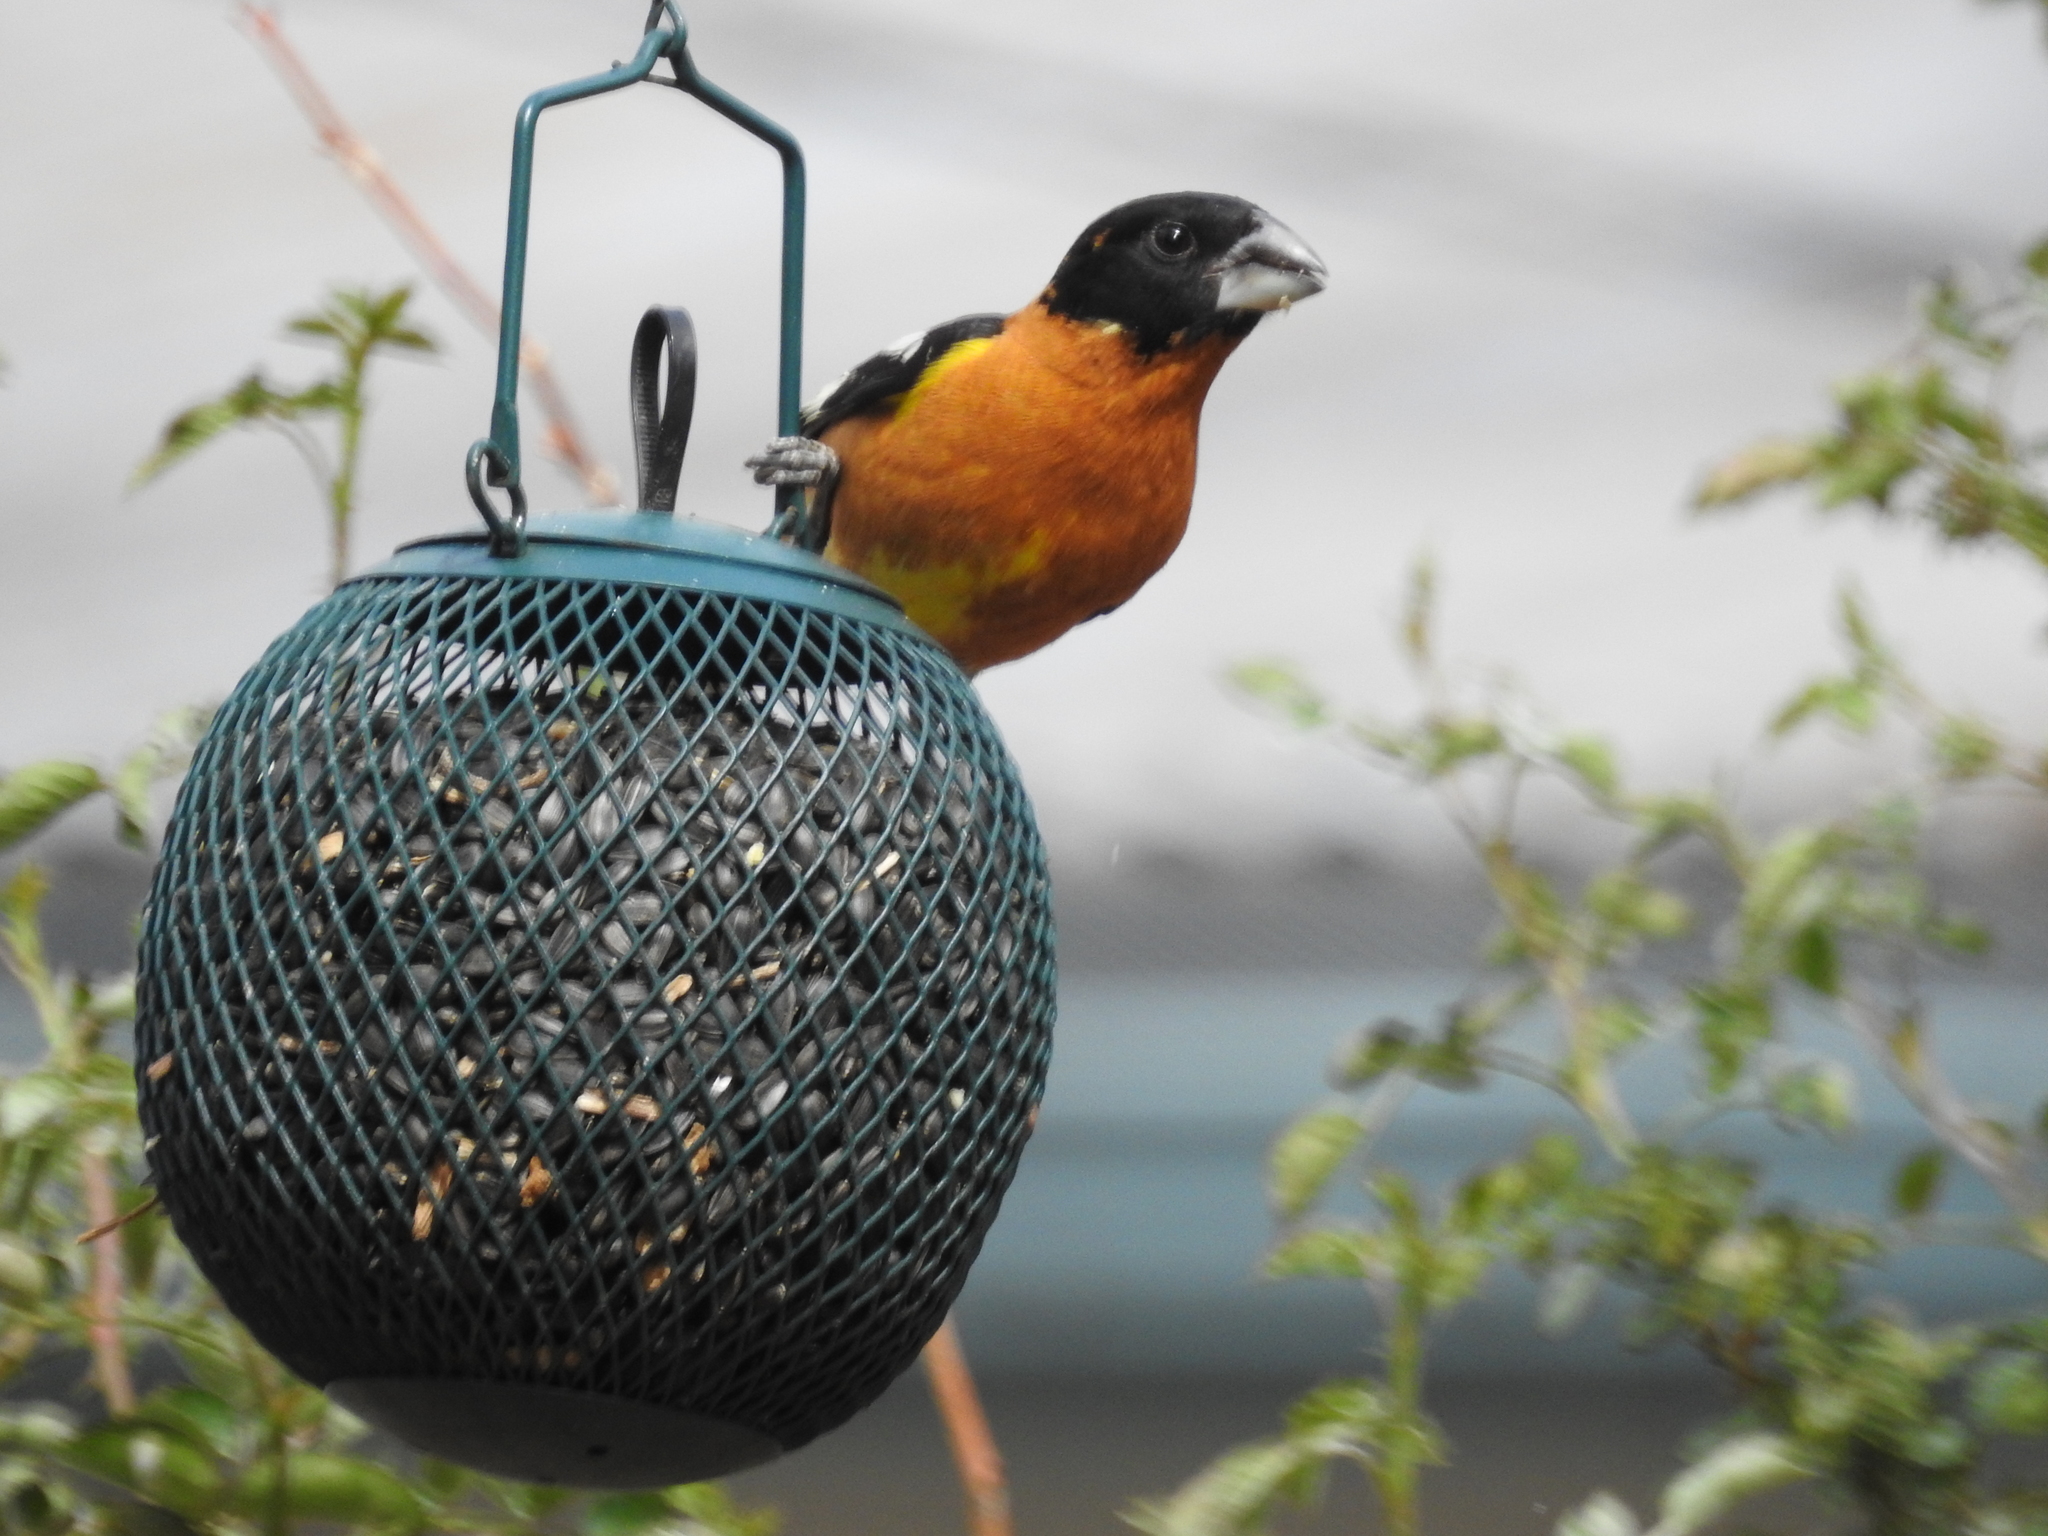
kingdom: Animalia
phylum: Chordata
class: Aves
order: Passeriformes
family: Cardinalidae
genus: Pheucticus
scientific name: Pheucticus melanocephalus
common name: Black-headed grosbeak
